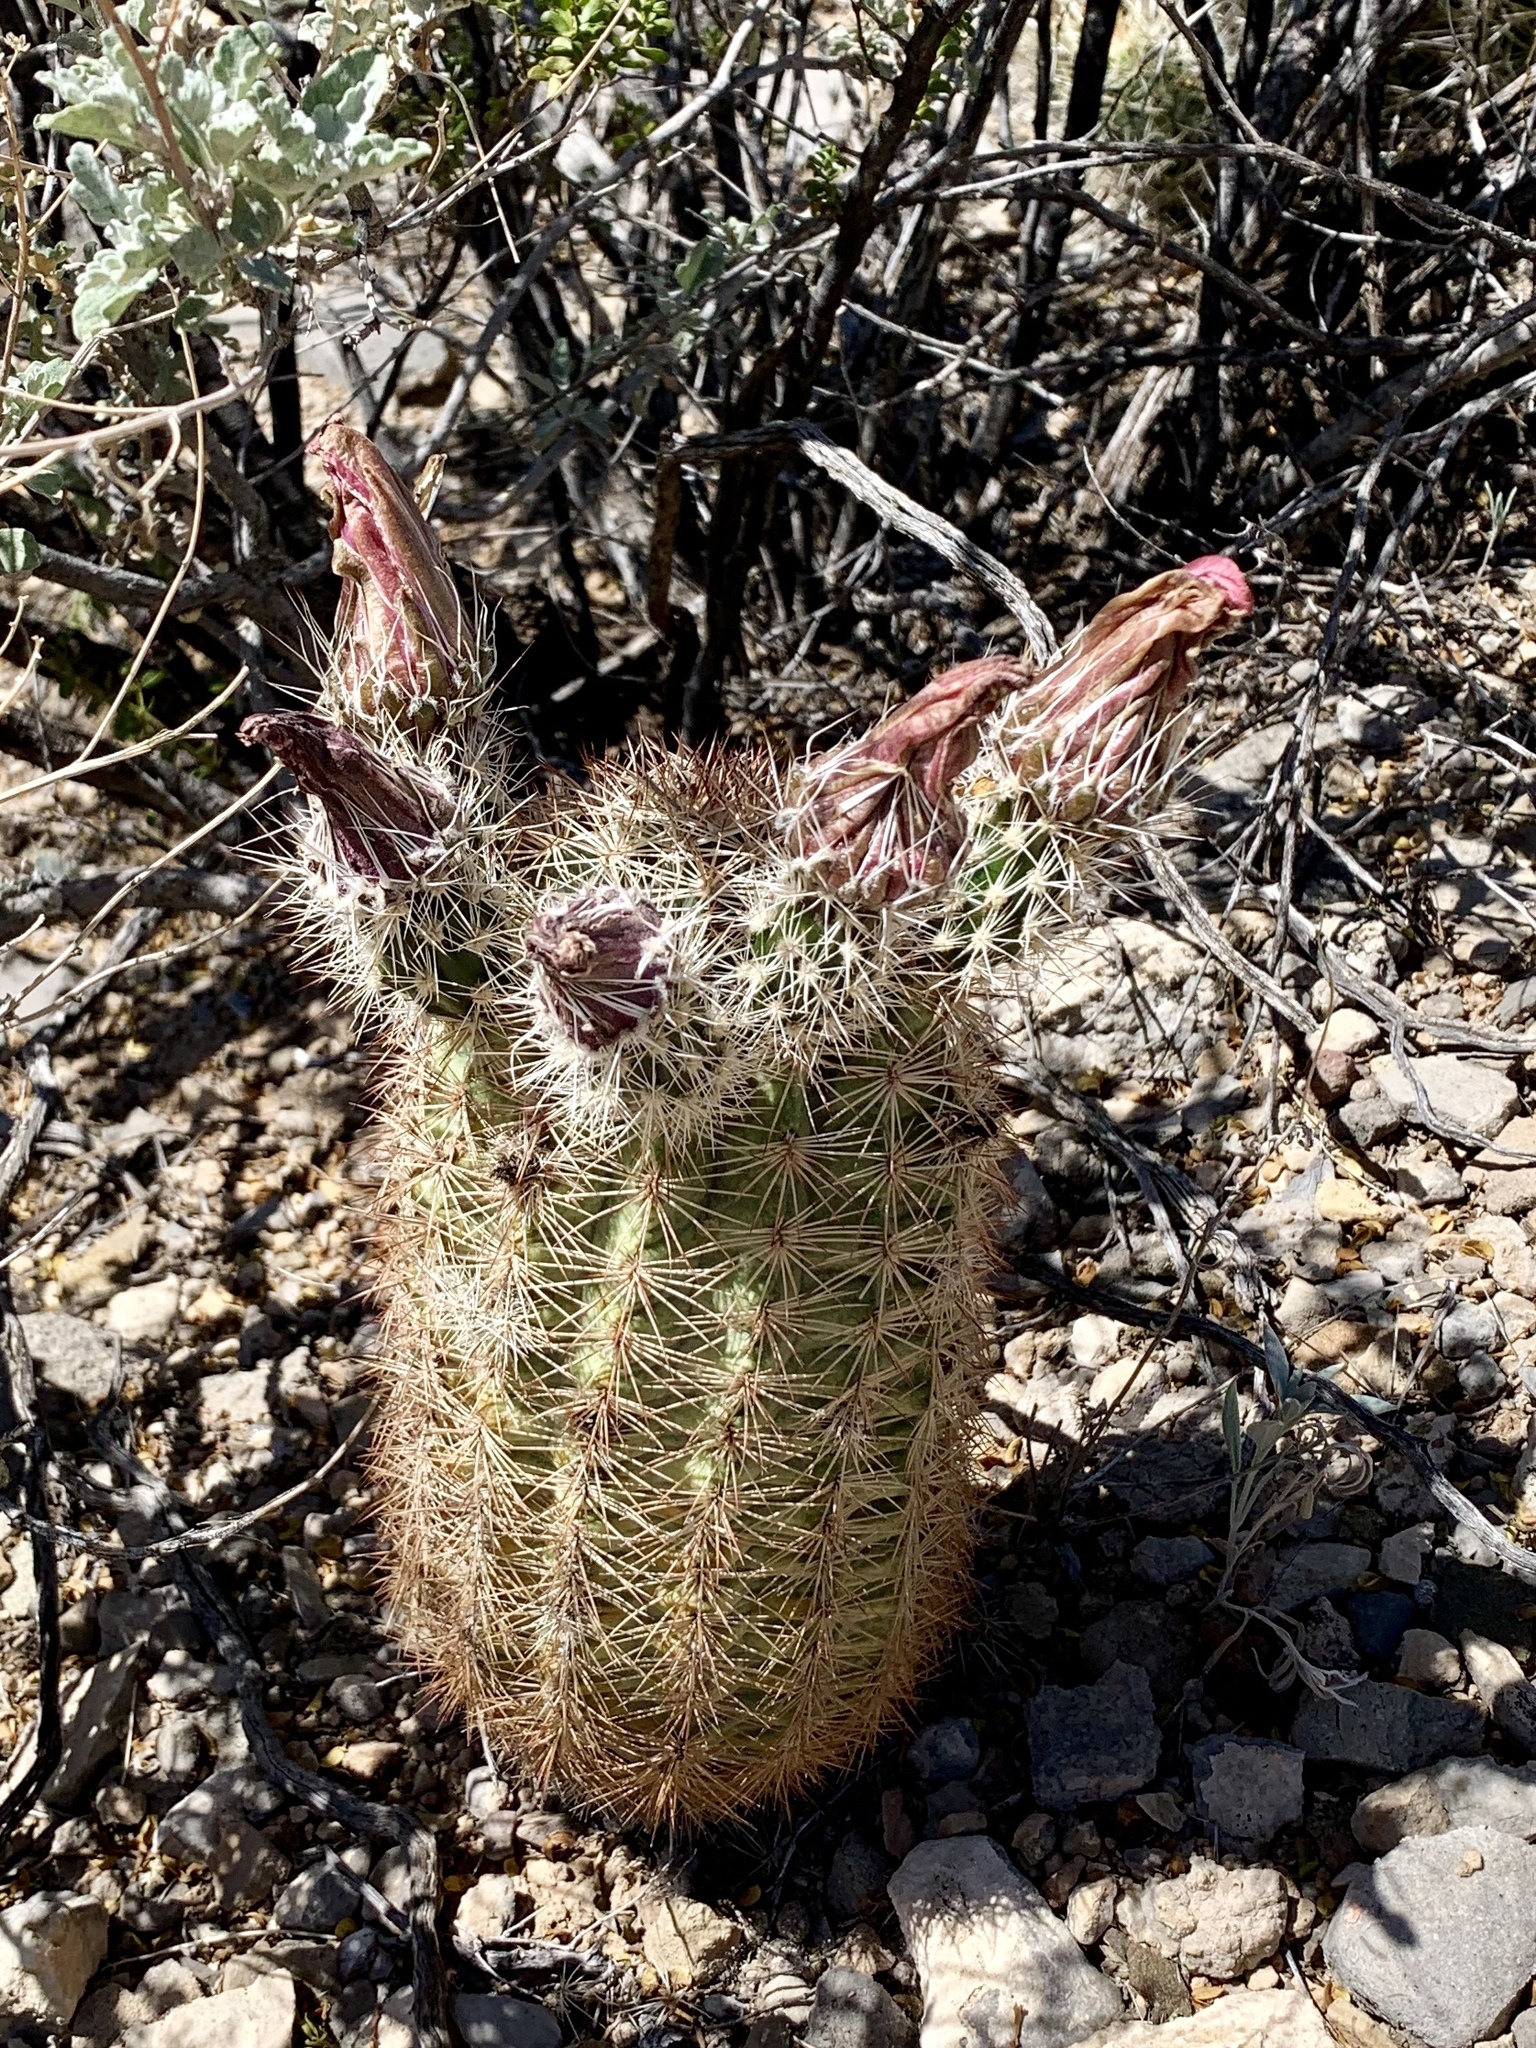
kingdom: Plantae
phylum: Tracheophyta
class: Magnoliopsida
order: Caryophyllales
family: Cactaceae
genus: Echinocereus
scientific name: Echinocereus dasyacanthus
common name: Spiny hedgehog cactus
